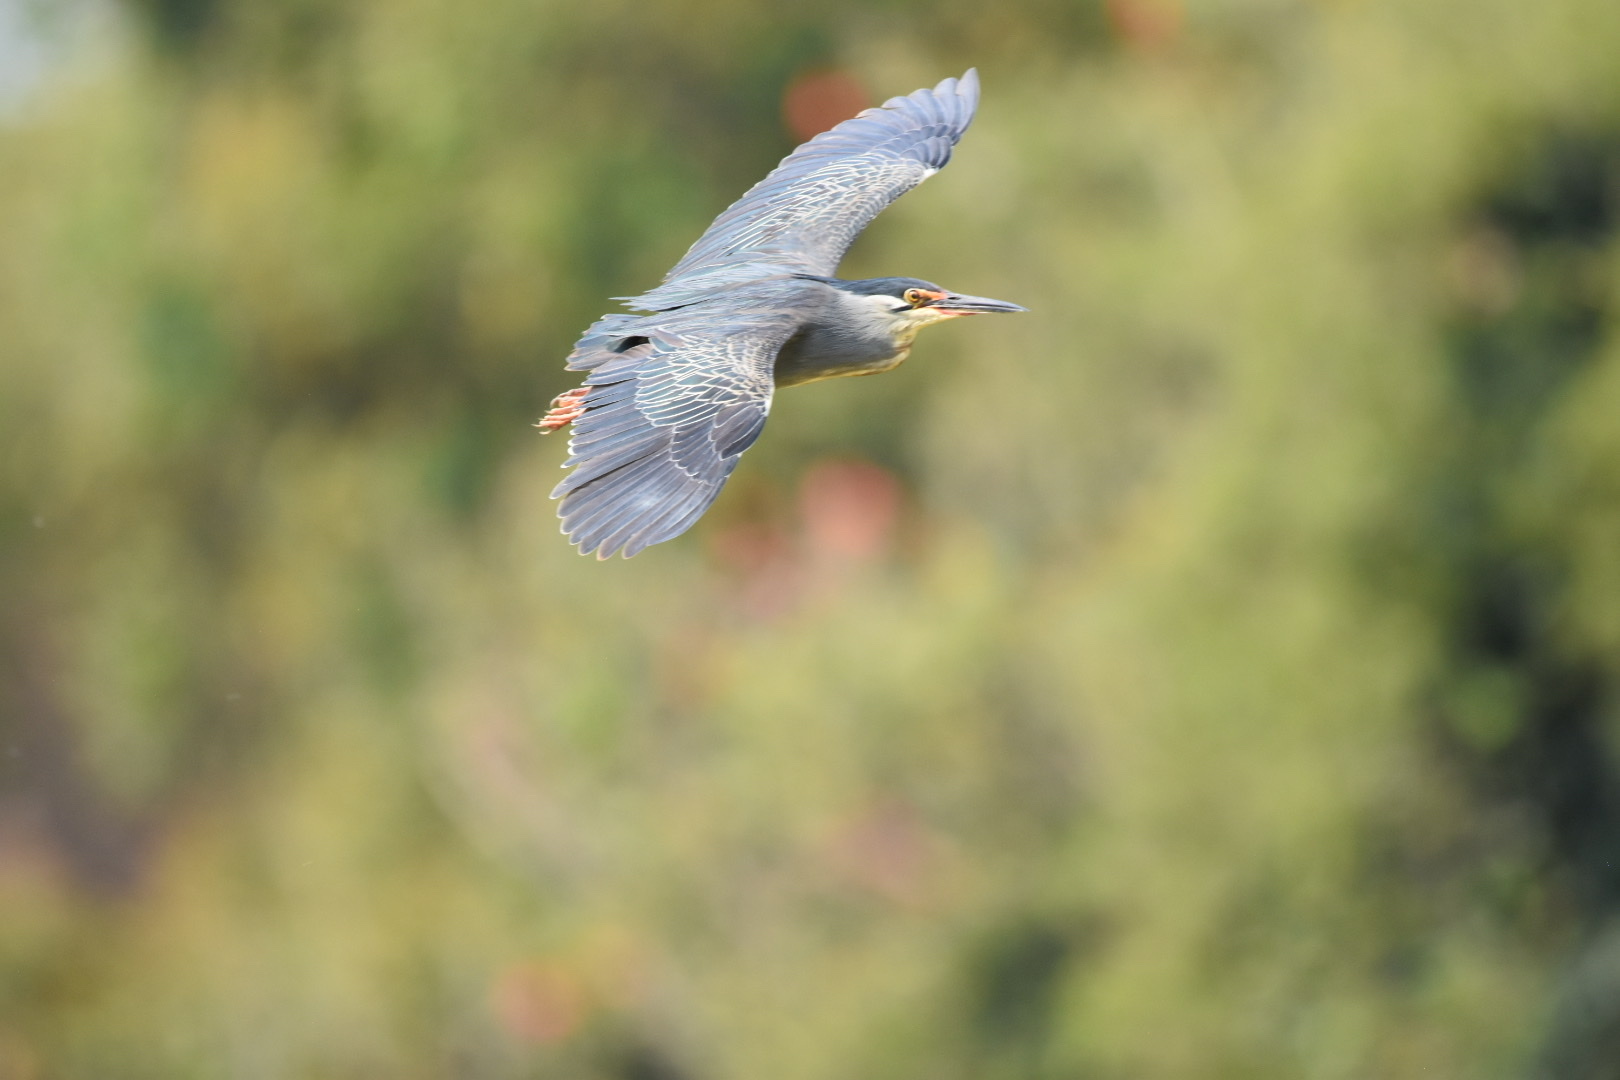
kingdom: Animalia
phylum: Chordata
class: Aves
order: Pelecaniformes
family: Ardeidae
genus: Butorides
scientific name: Butorides striata
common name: Striated heron
